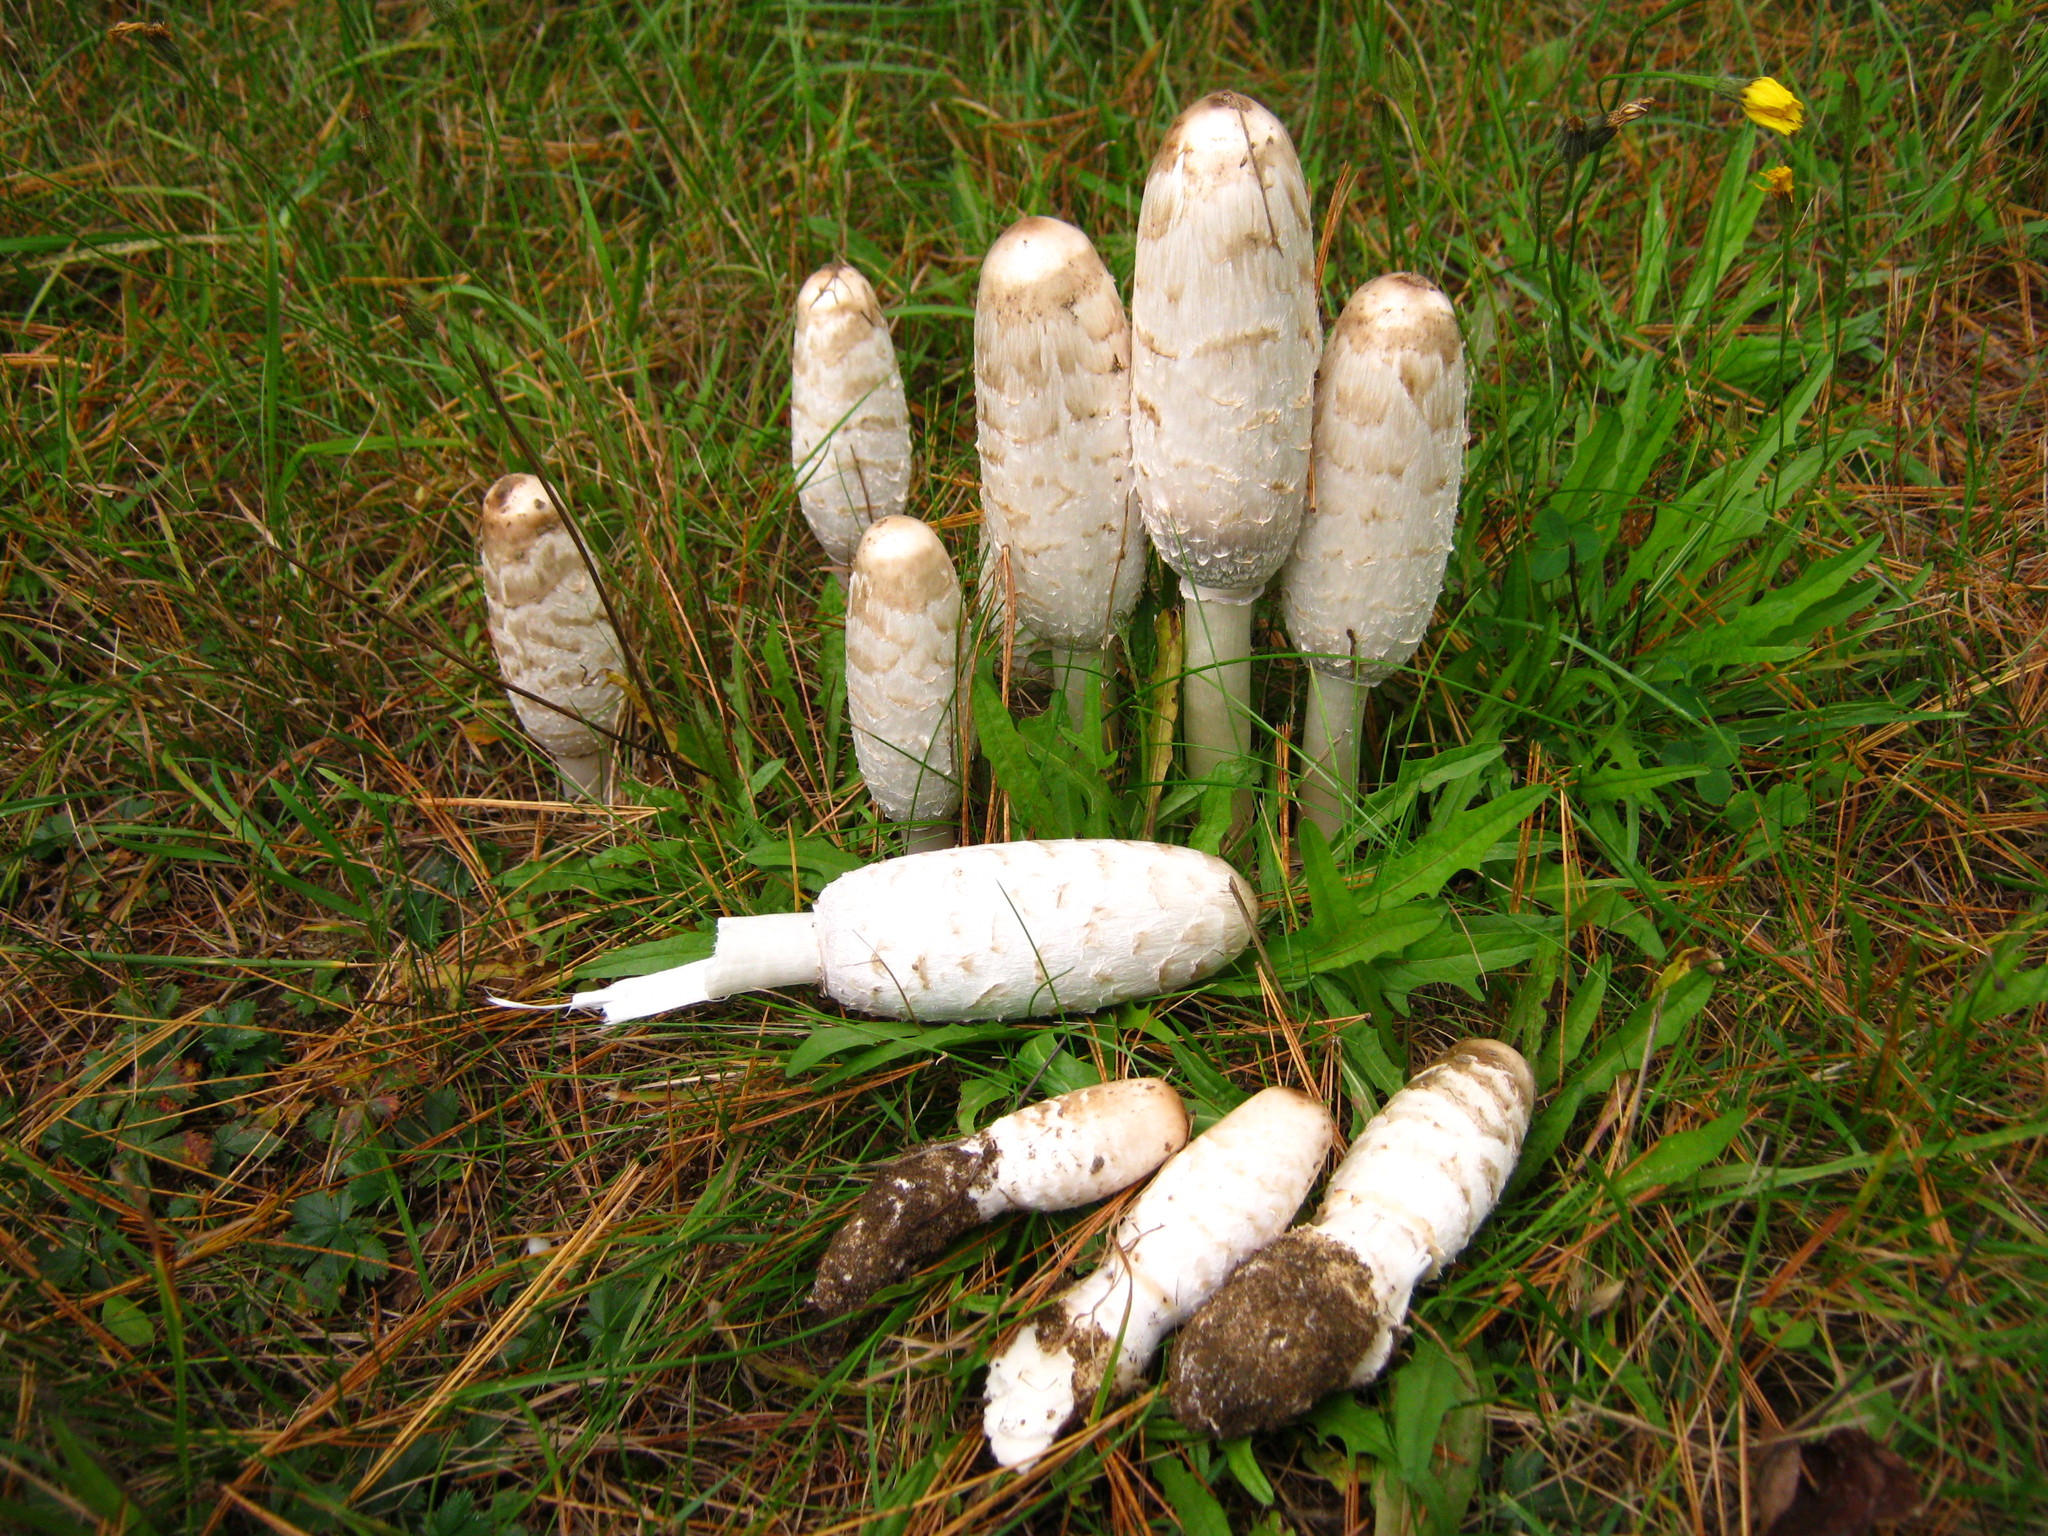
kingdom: Fungi
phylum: Basidiomycota
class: Agaricomycetes
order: Agaricales
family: Agaricaceae
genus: Coprinus
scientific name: Coprinus comatus
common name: Lawyer's wig
